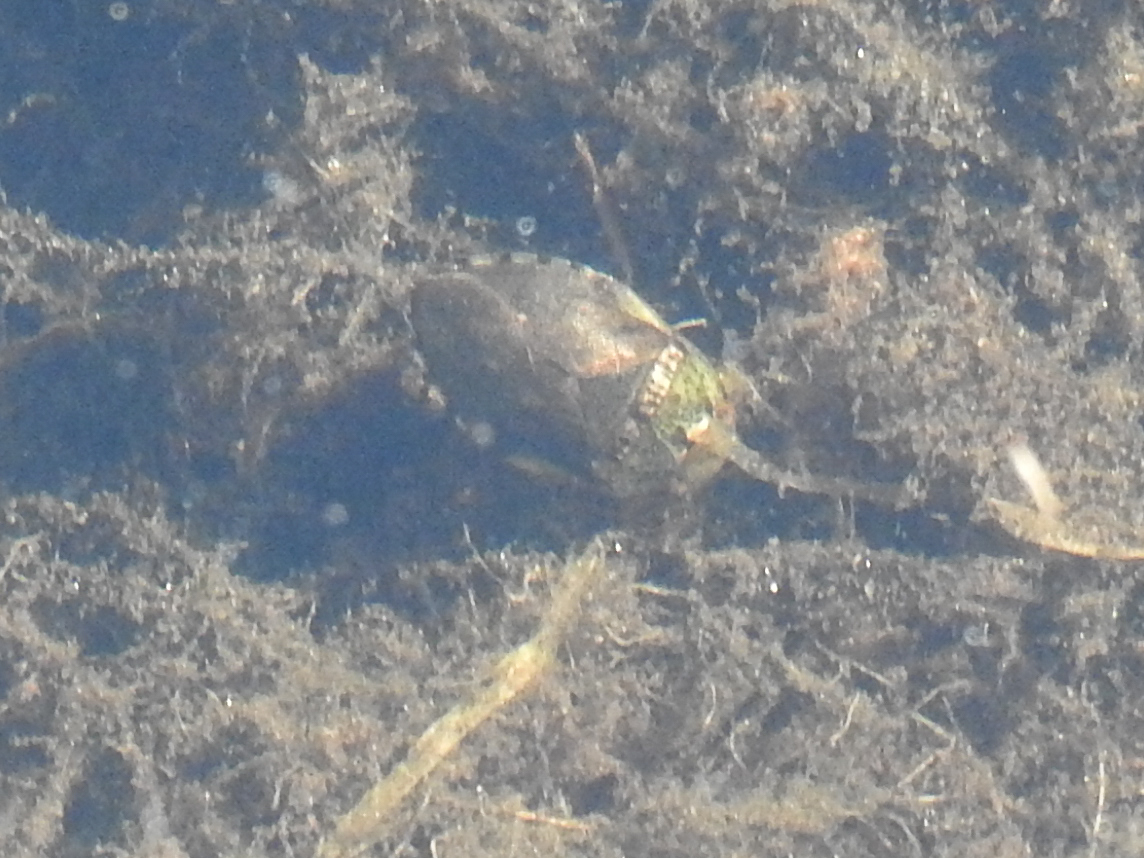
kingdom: Animalia
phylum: Arthropoda
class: Insecta
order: Hemiptera
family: Naucoridae
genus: Pelocoris
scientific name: Pelocoris femoratus
